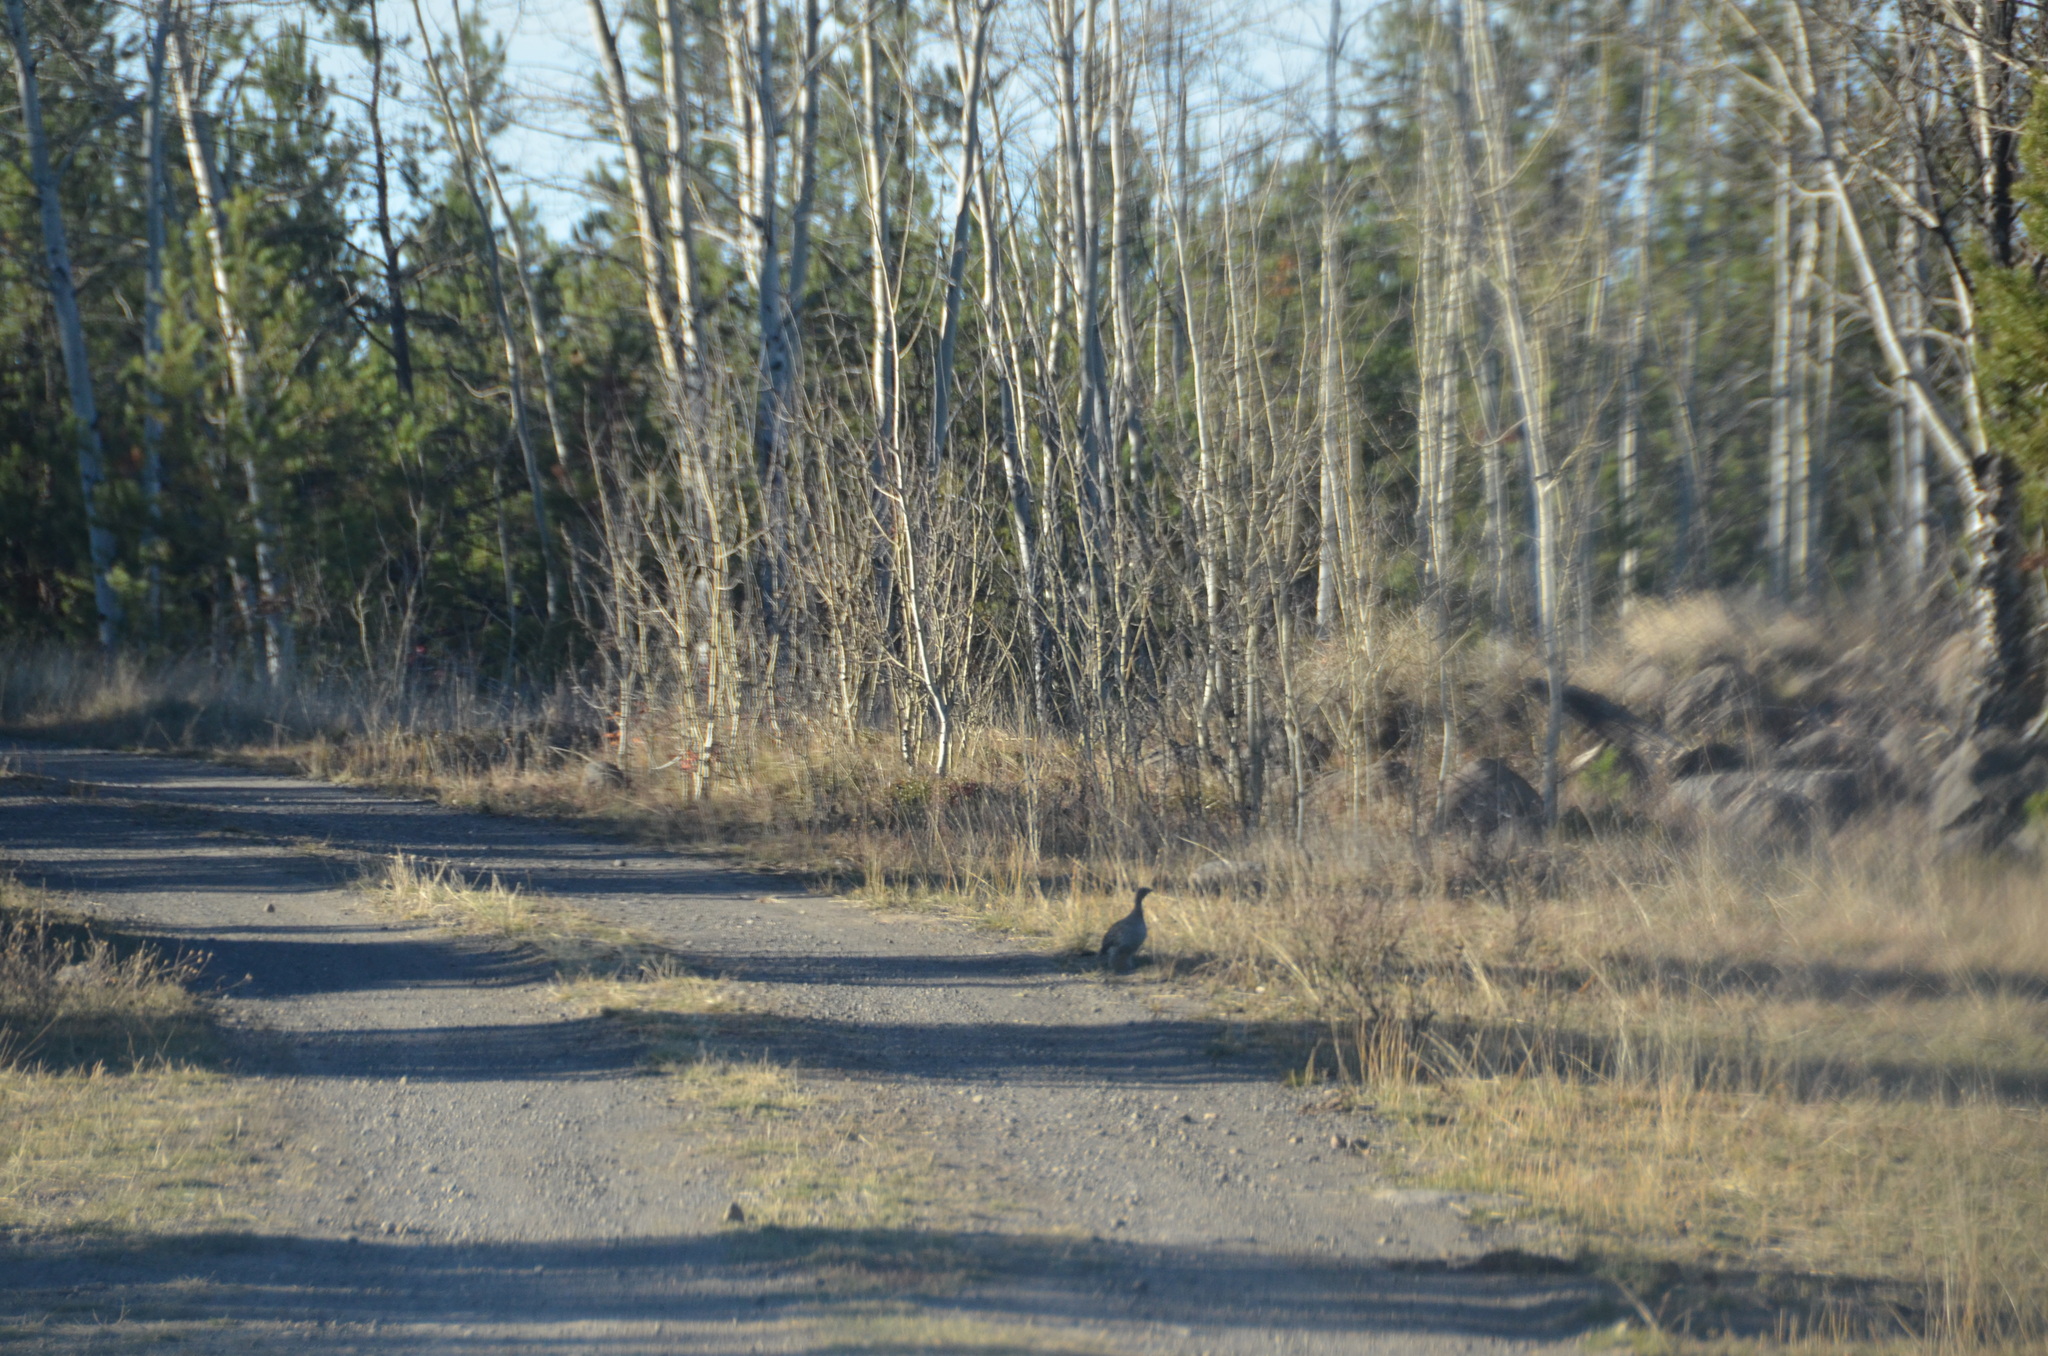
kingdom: Animalia
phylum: Chordata
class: Aves
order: Galliformes
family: Phasianidae
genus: Tympanuchus
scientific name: Tympanuchus phasianellus
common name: Sharp-tailed grouse
